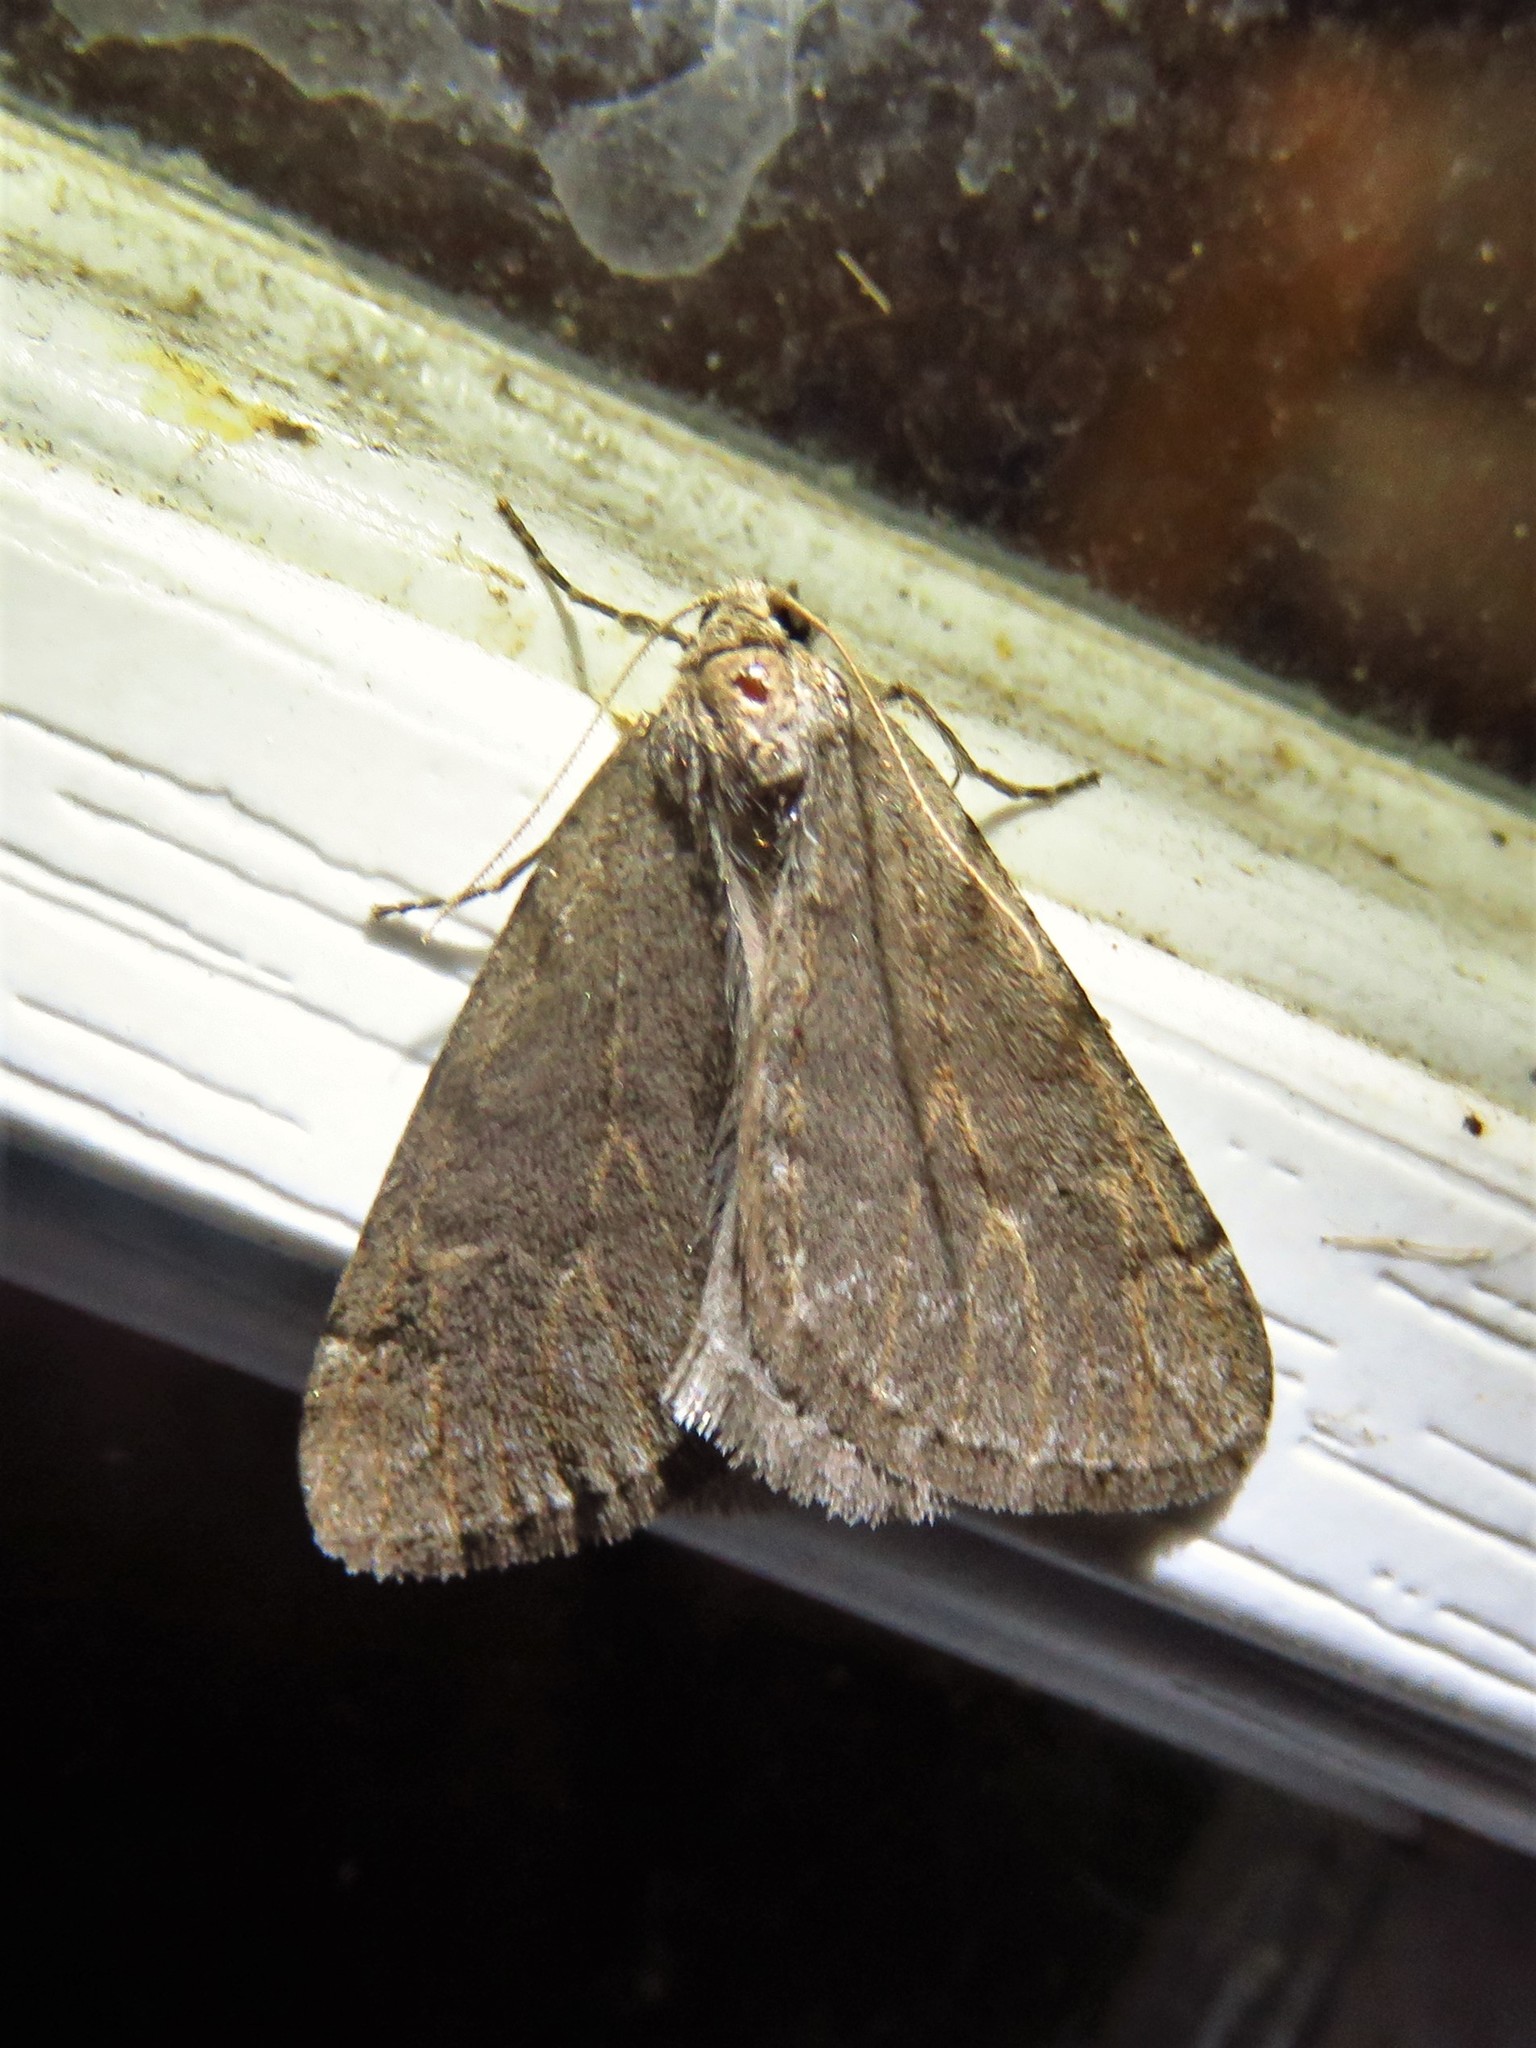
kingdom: Animalia
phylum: Arthropoda
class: Insecta
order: Lepidoptera
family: Geometridae
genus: Paleacrita
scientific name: Paleacrita vernata
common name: Spring cankerworm
